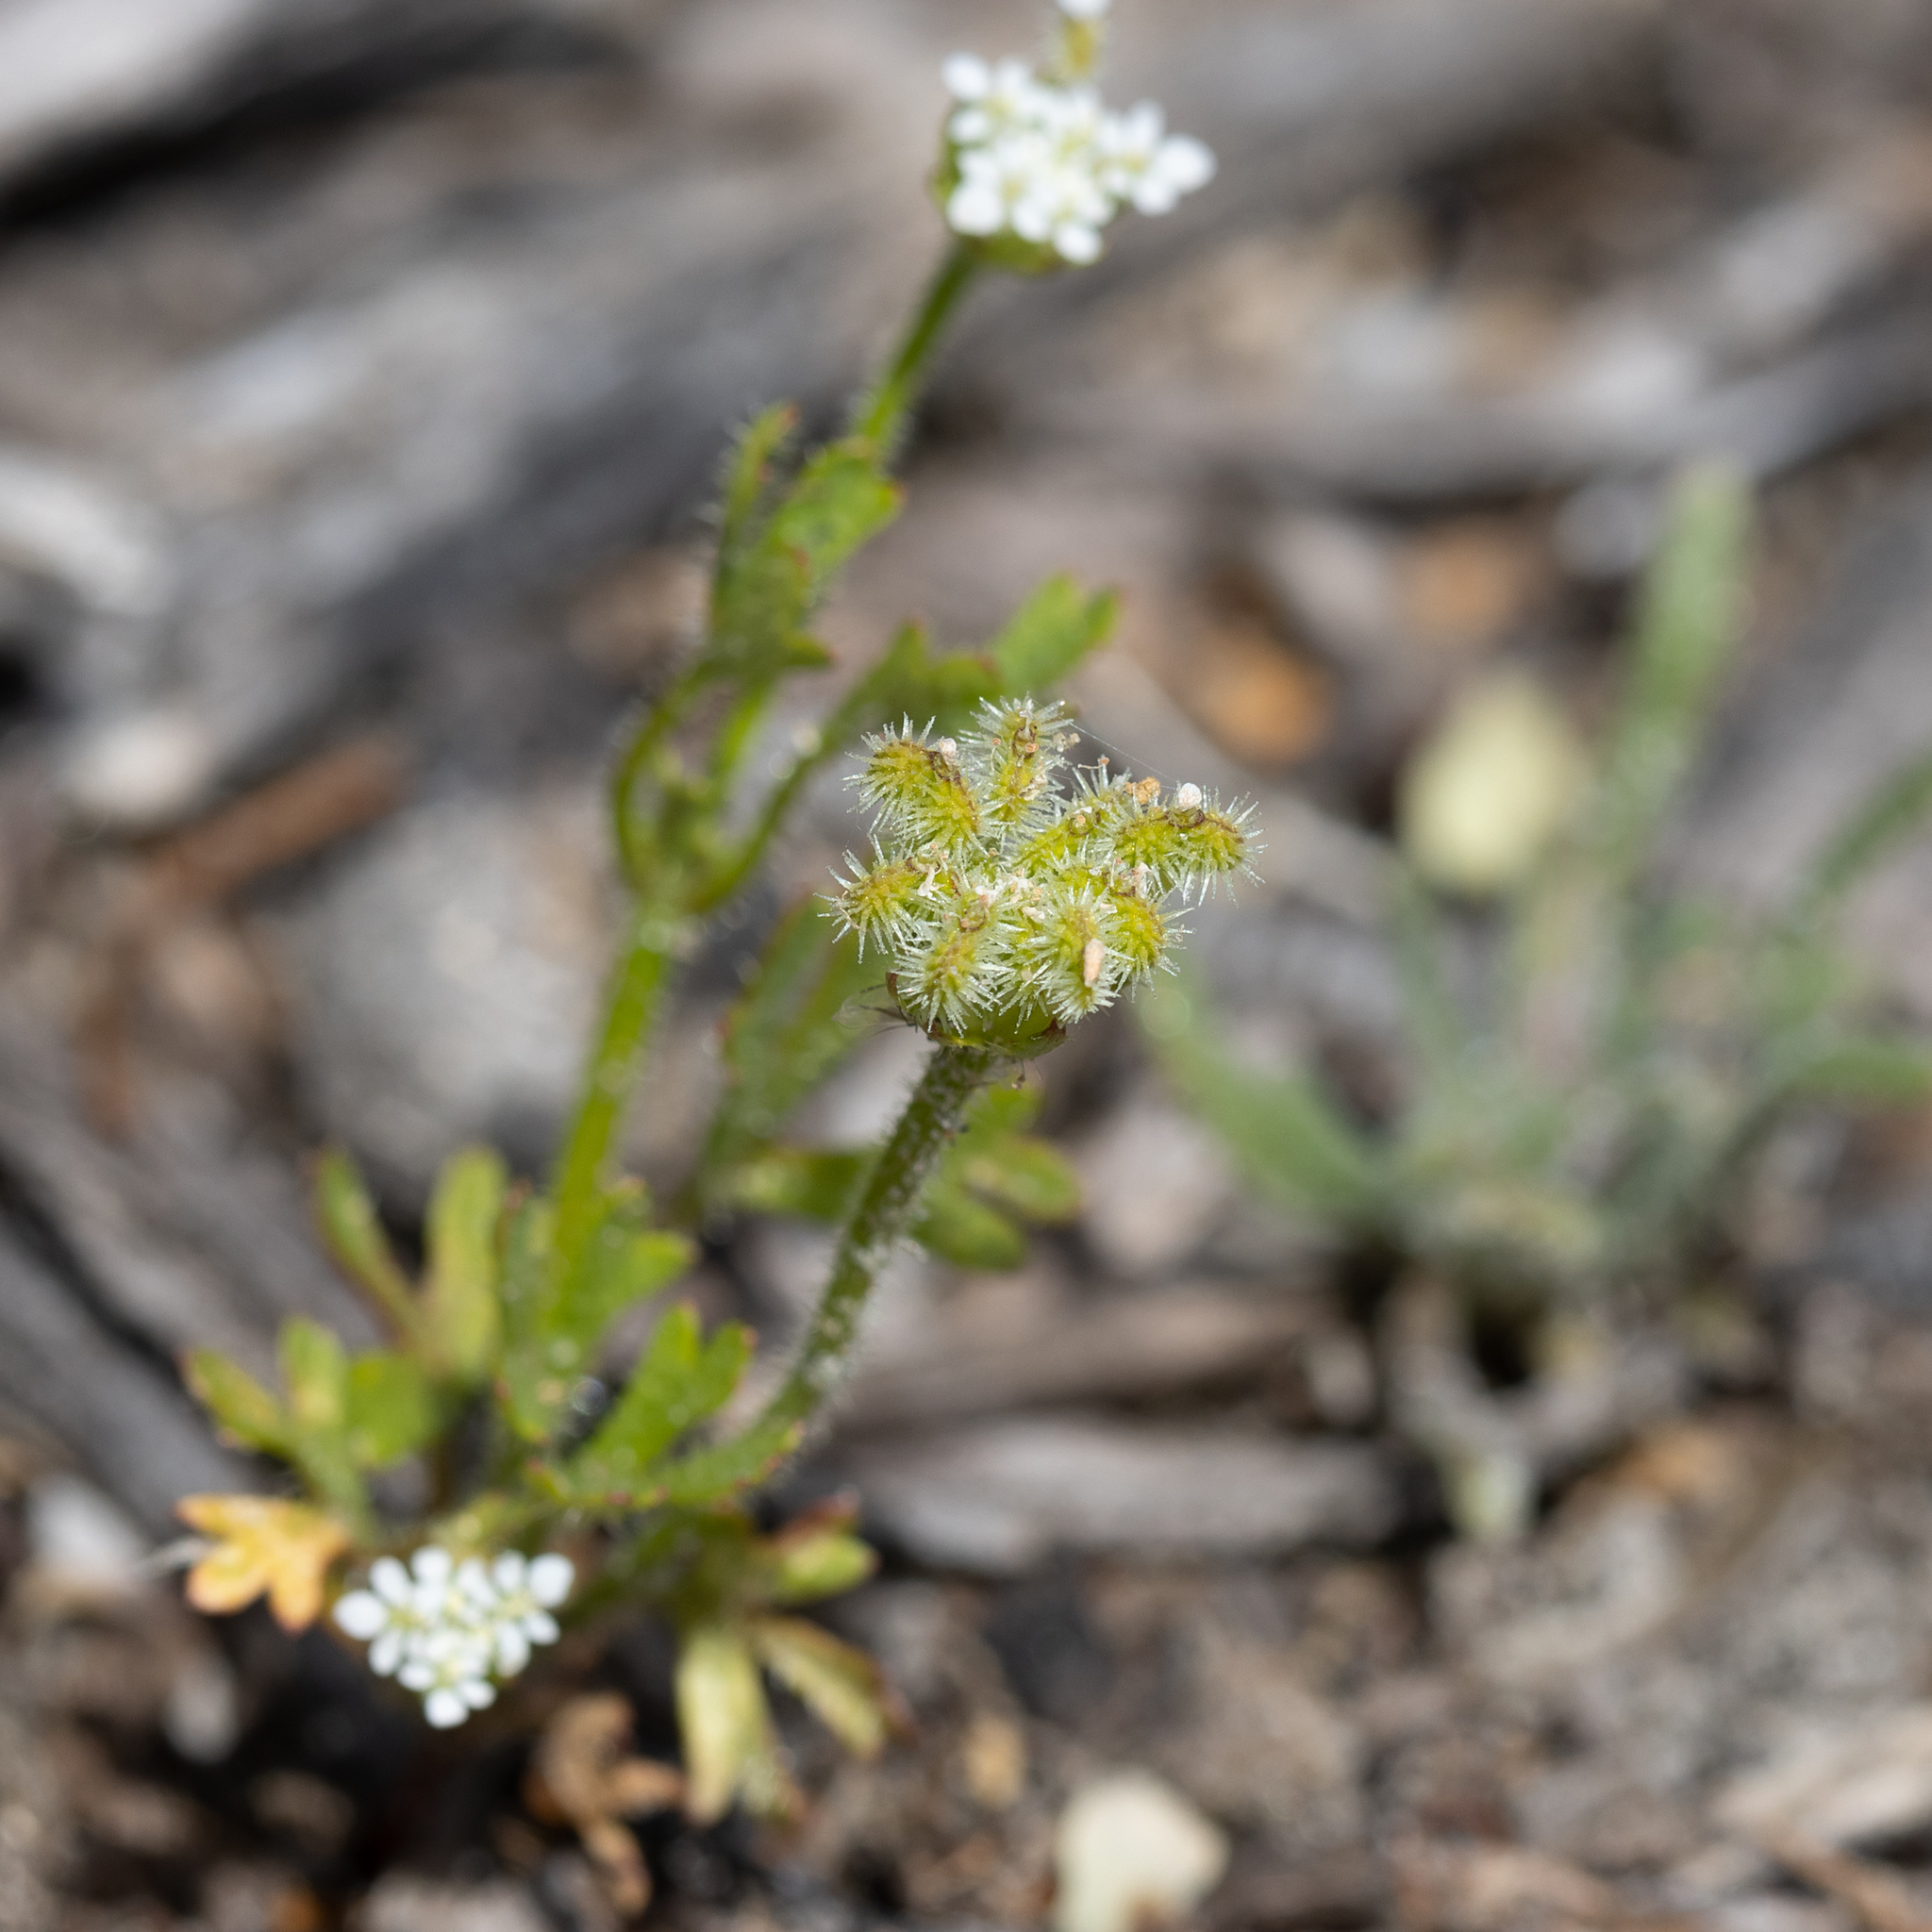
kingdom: Plantae
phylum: Tracheophyta
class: Magnoliopsida
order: Apiales
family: Araliaceae
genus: Trachymene
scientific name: Trachymene pilosa
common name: Dwarf trachymene
